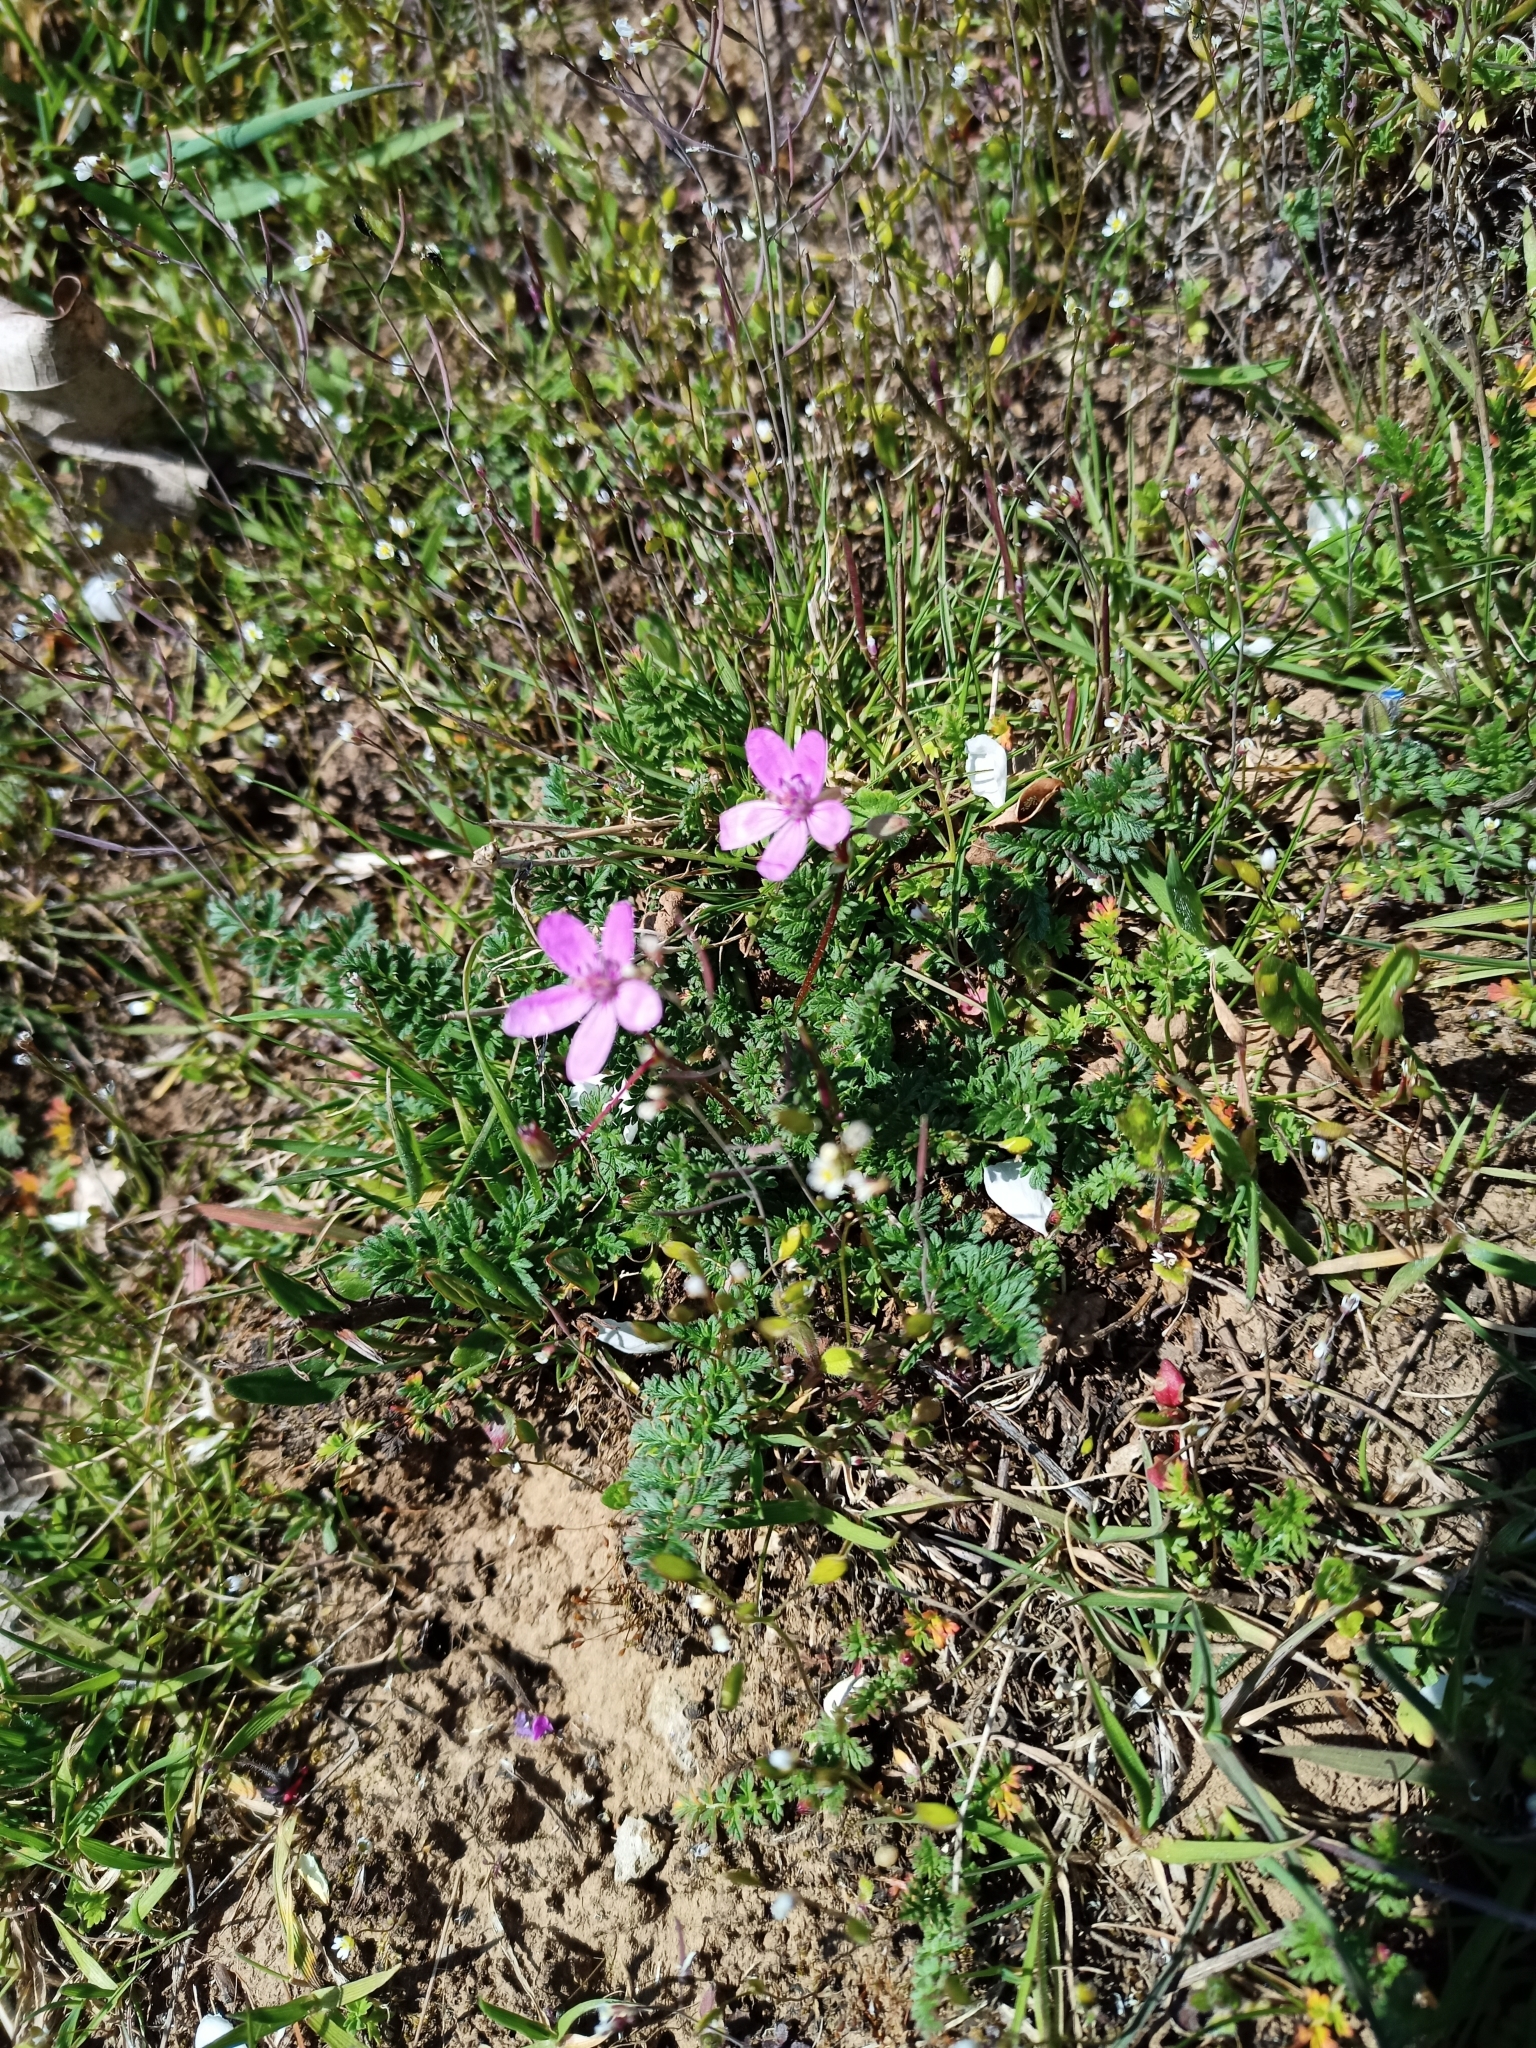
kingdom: Plantae
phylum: Tracheophyta
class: Magnoliopsida
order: Geraniales
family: Geraniaceae
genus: Erodium
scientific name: Erodium cicutarium
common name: Common stork's-bill
